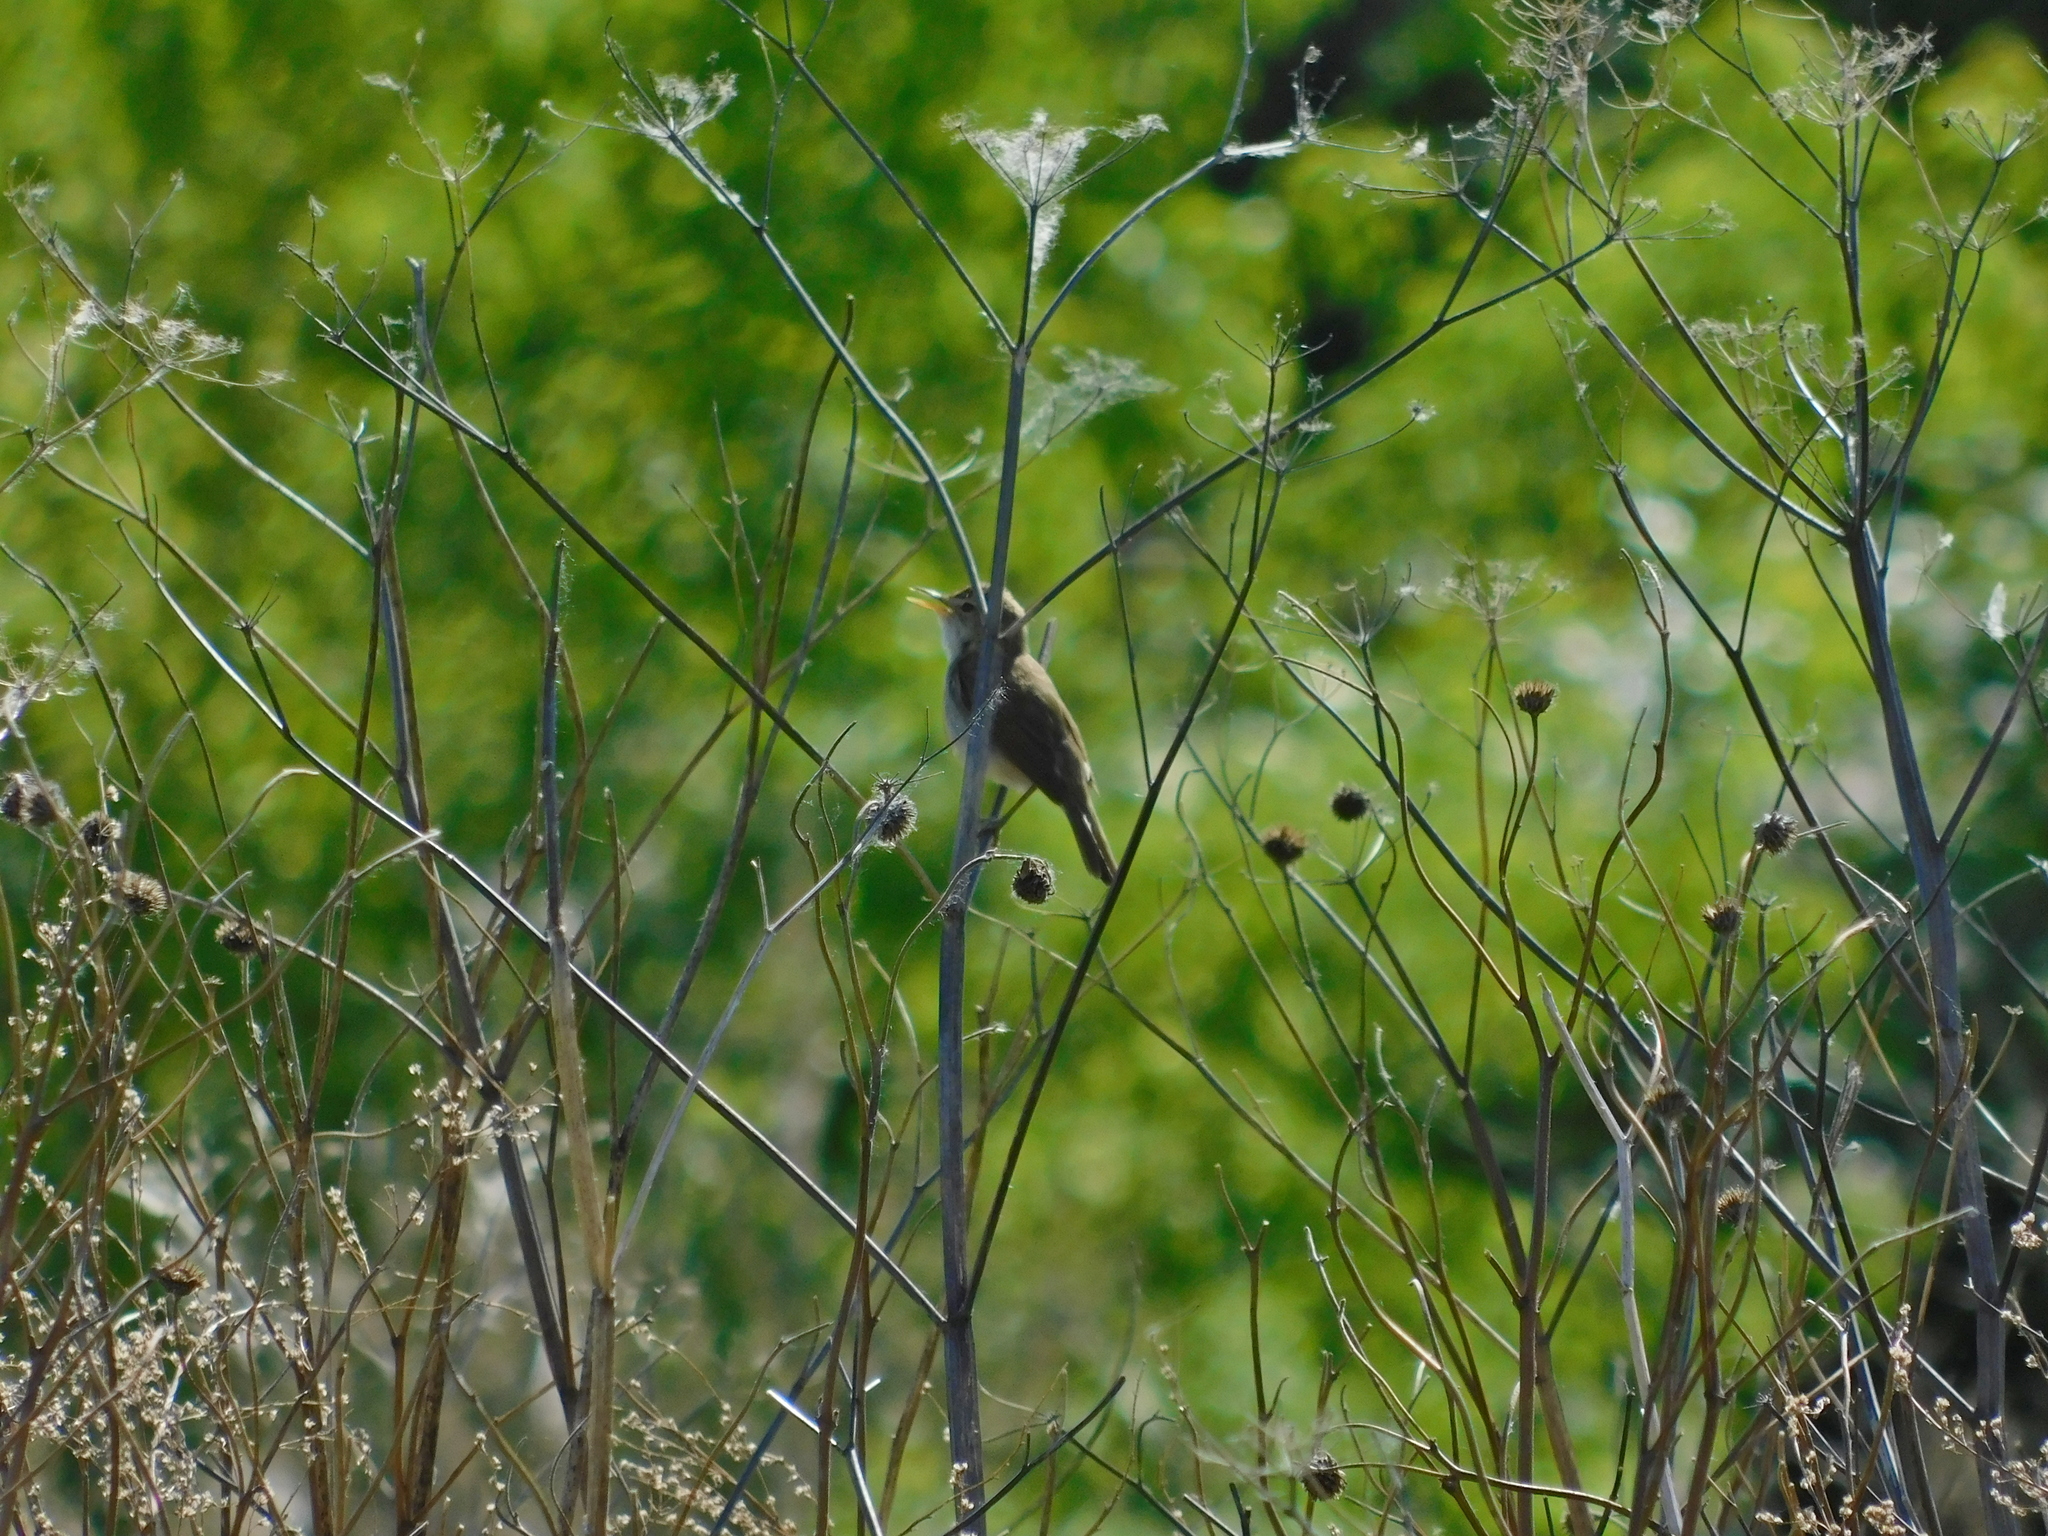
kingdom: Animalia
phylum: Chordata
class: Aves
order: Passeriformes
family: Acrocephalidae
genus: Acrocephalus
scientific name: Acrocephalus dumetorum
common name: Blyth's reed warbler
